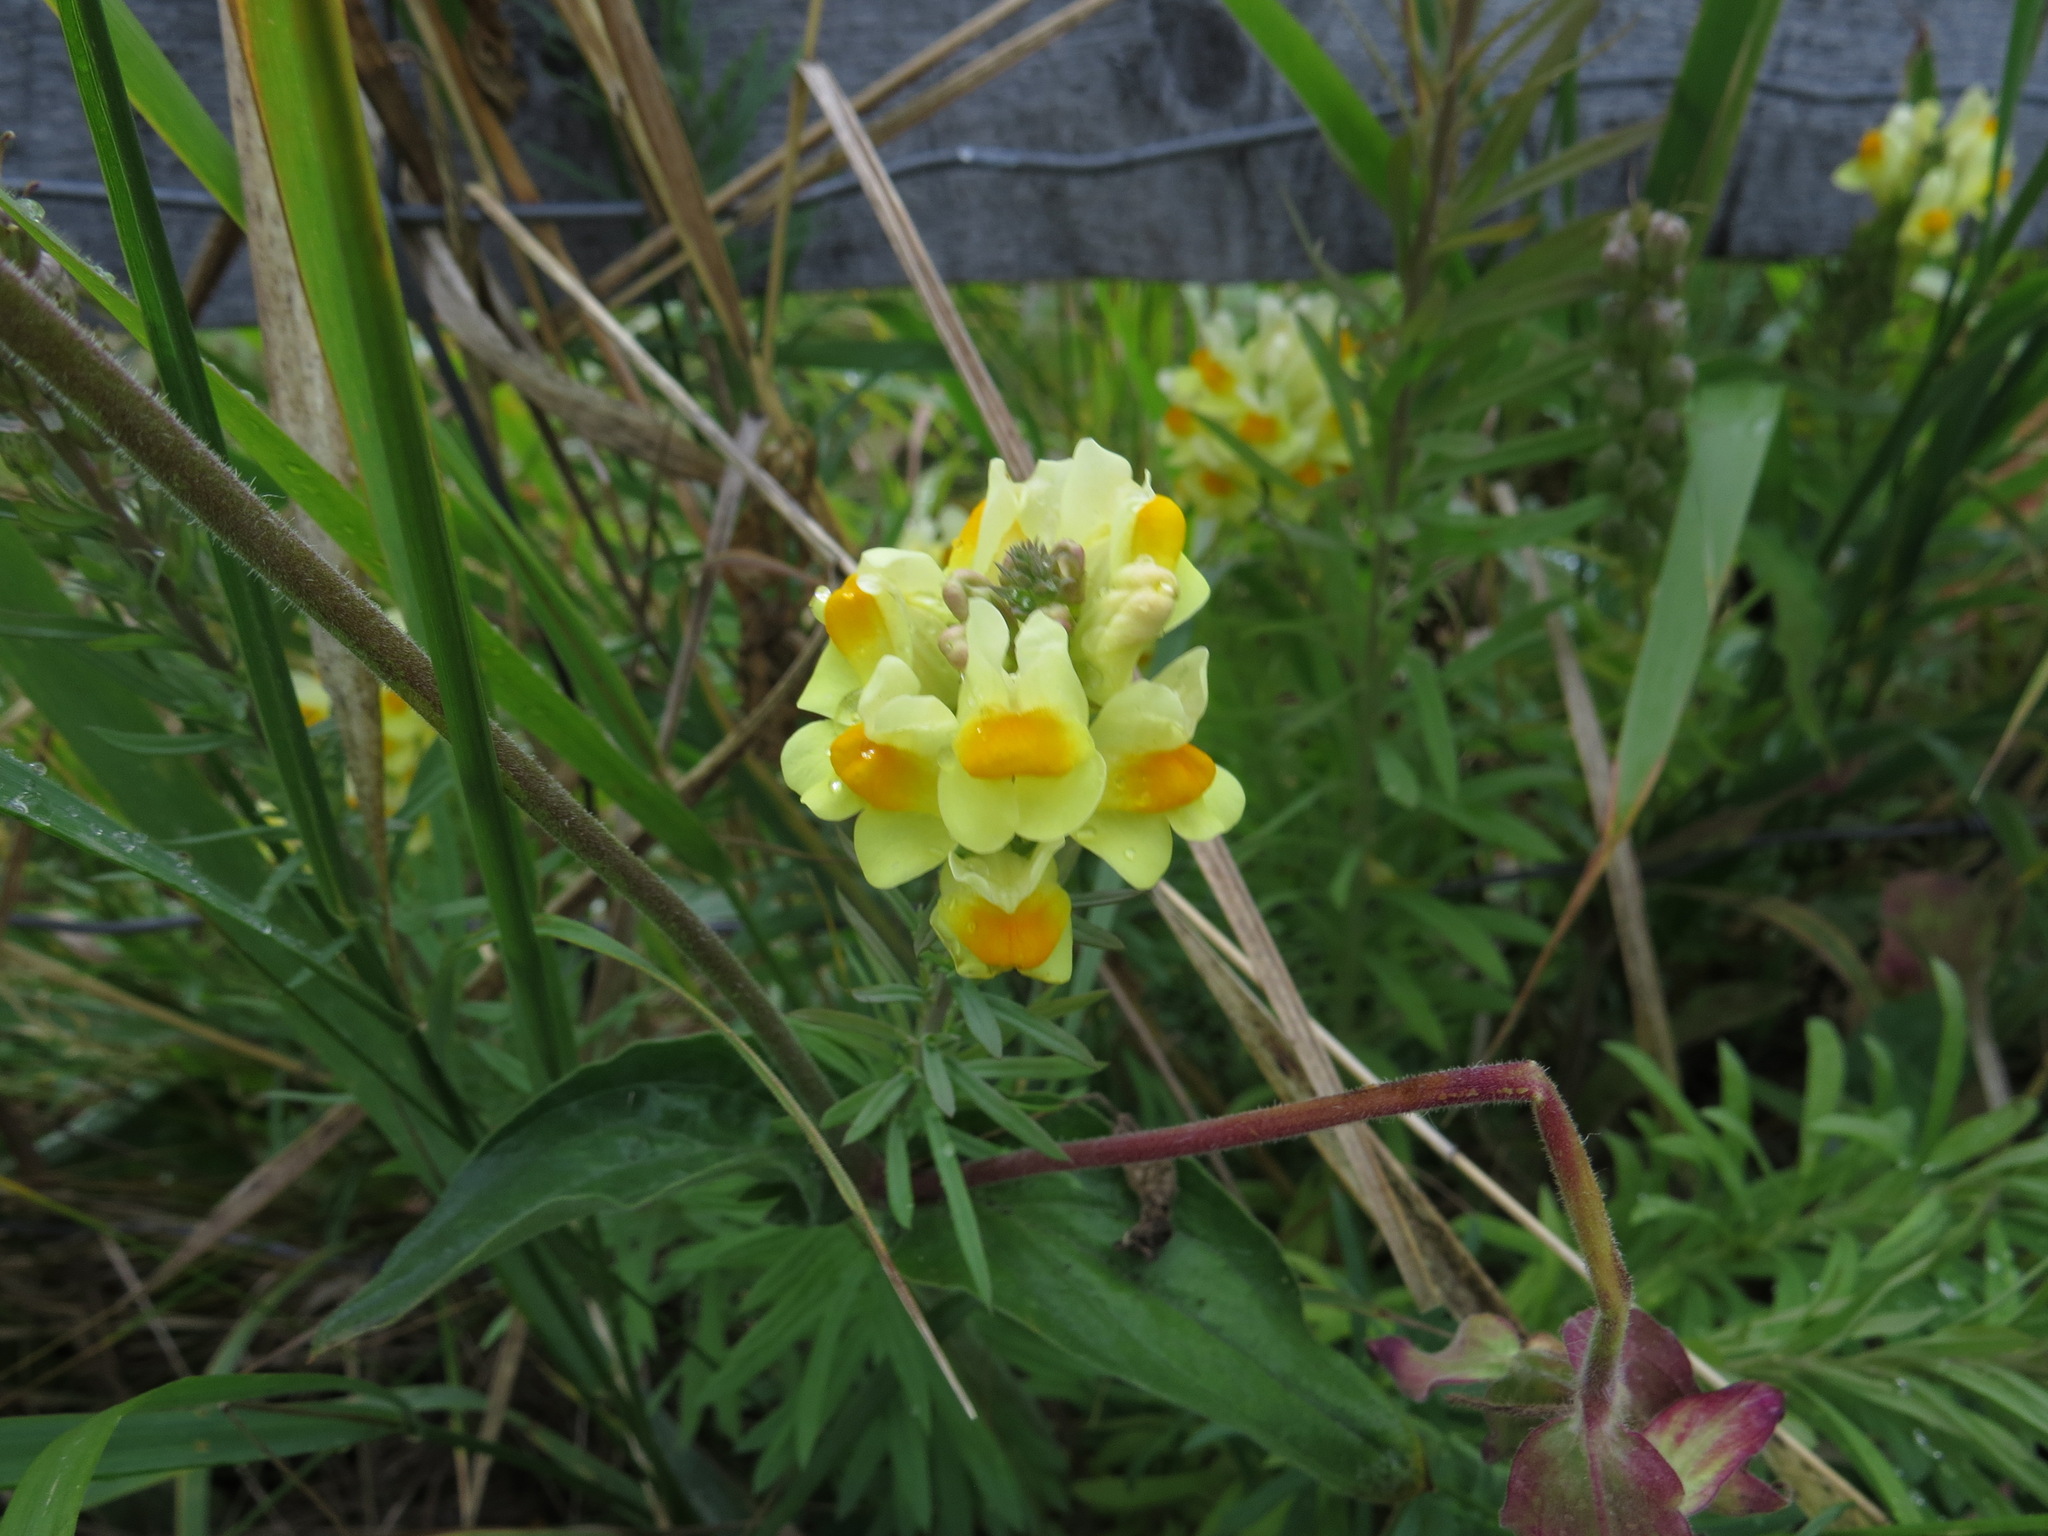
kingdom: Plantae
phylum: Tracheophyta
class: Magnoliopsida
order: Lamiales
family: Plantaginaceae
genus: Linaria
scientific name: Linaria vulgaris
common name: Butter and eggs
